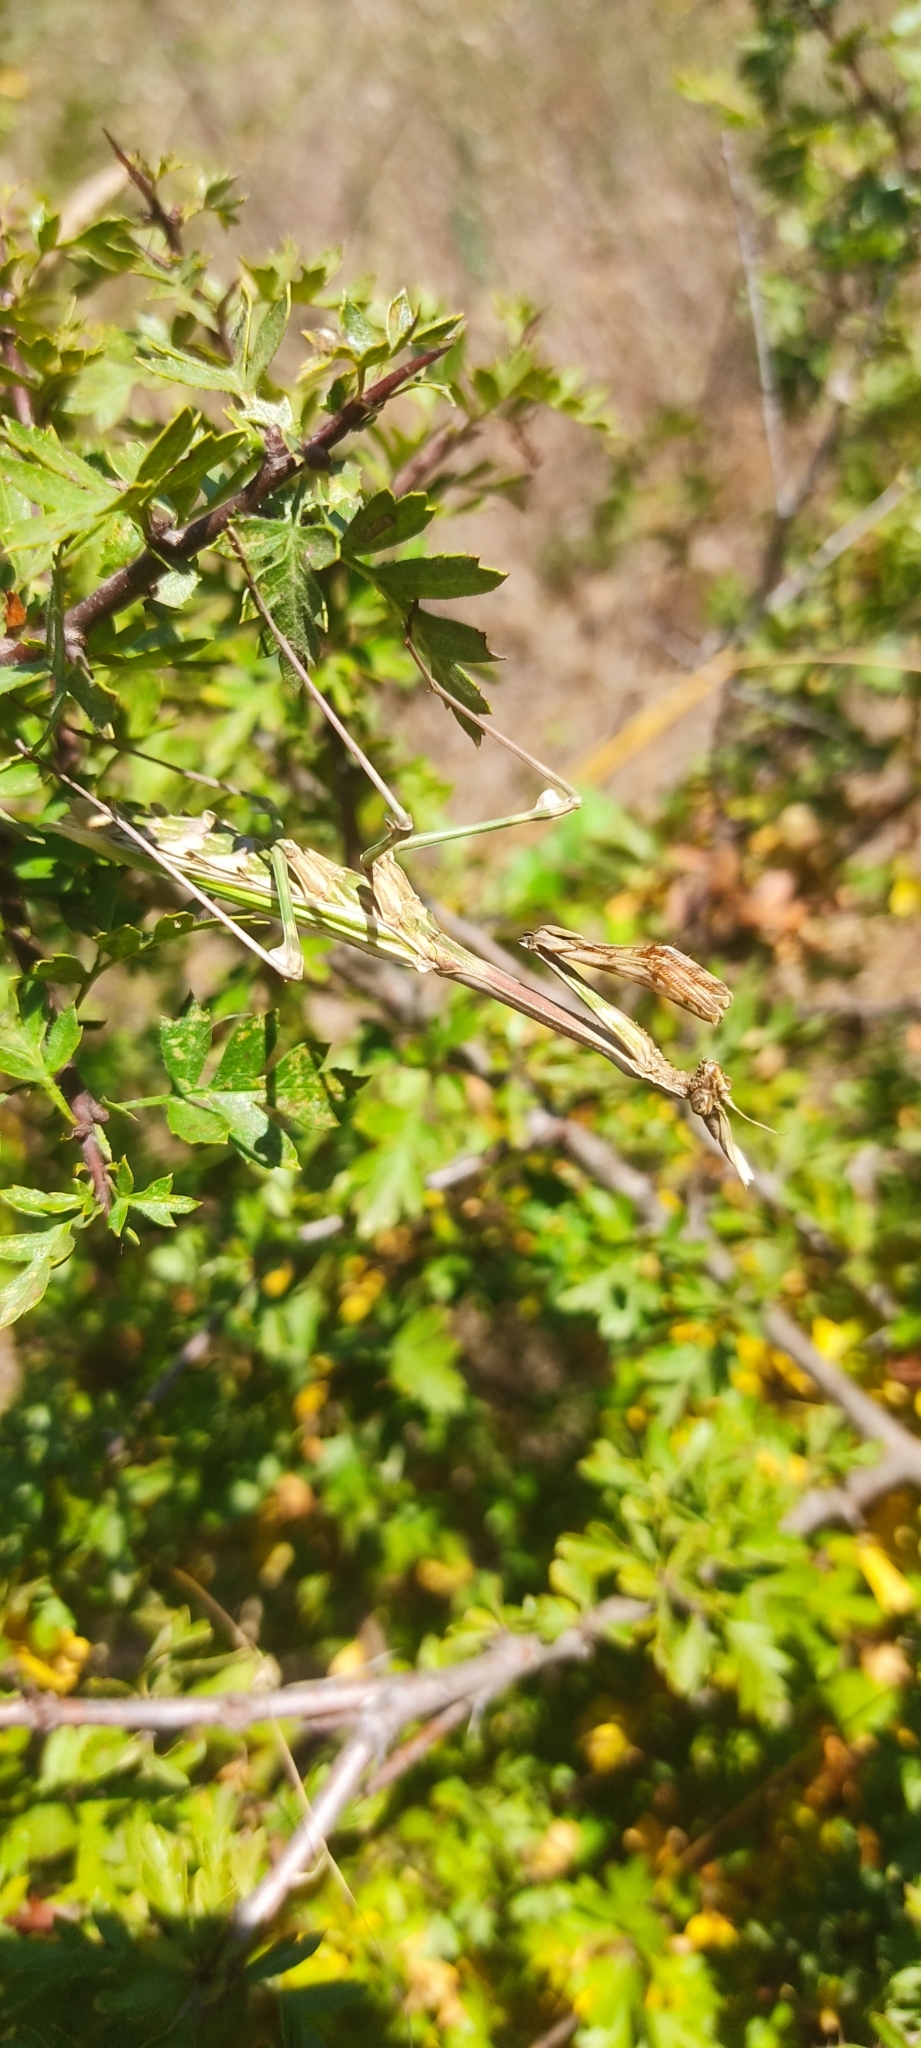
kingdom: Animalia
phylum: Arthropoda
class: Insecta
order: Mantodea
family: Empusidae
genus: Empusa
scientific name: Empusa pennata
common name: Conehead mantis
